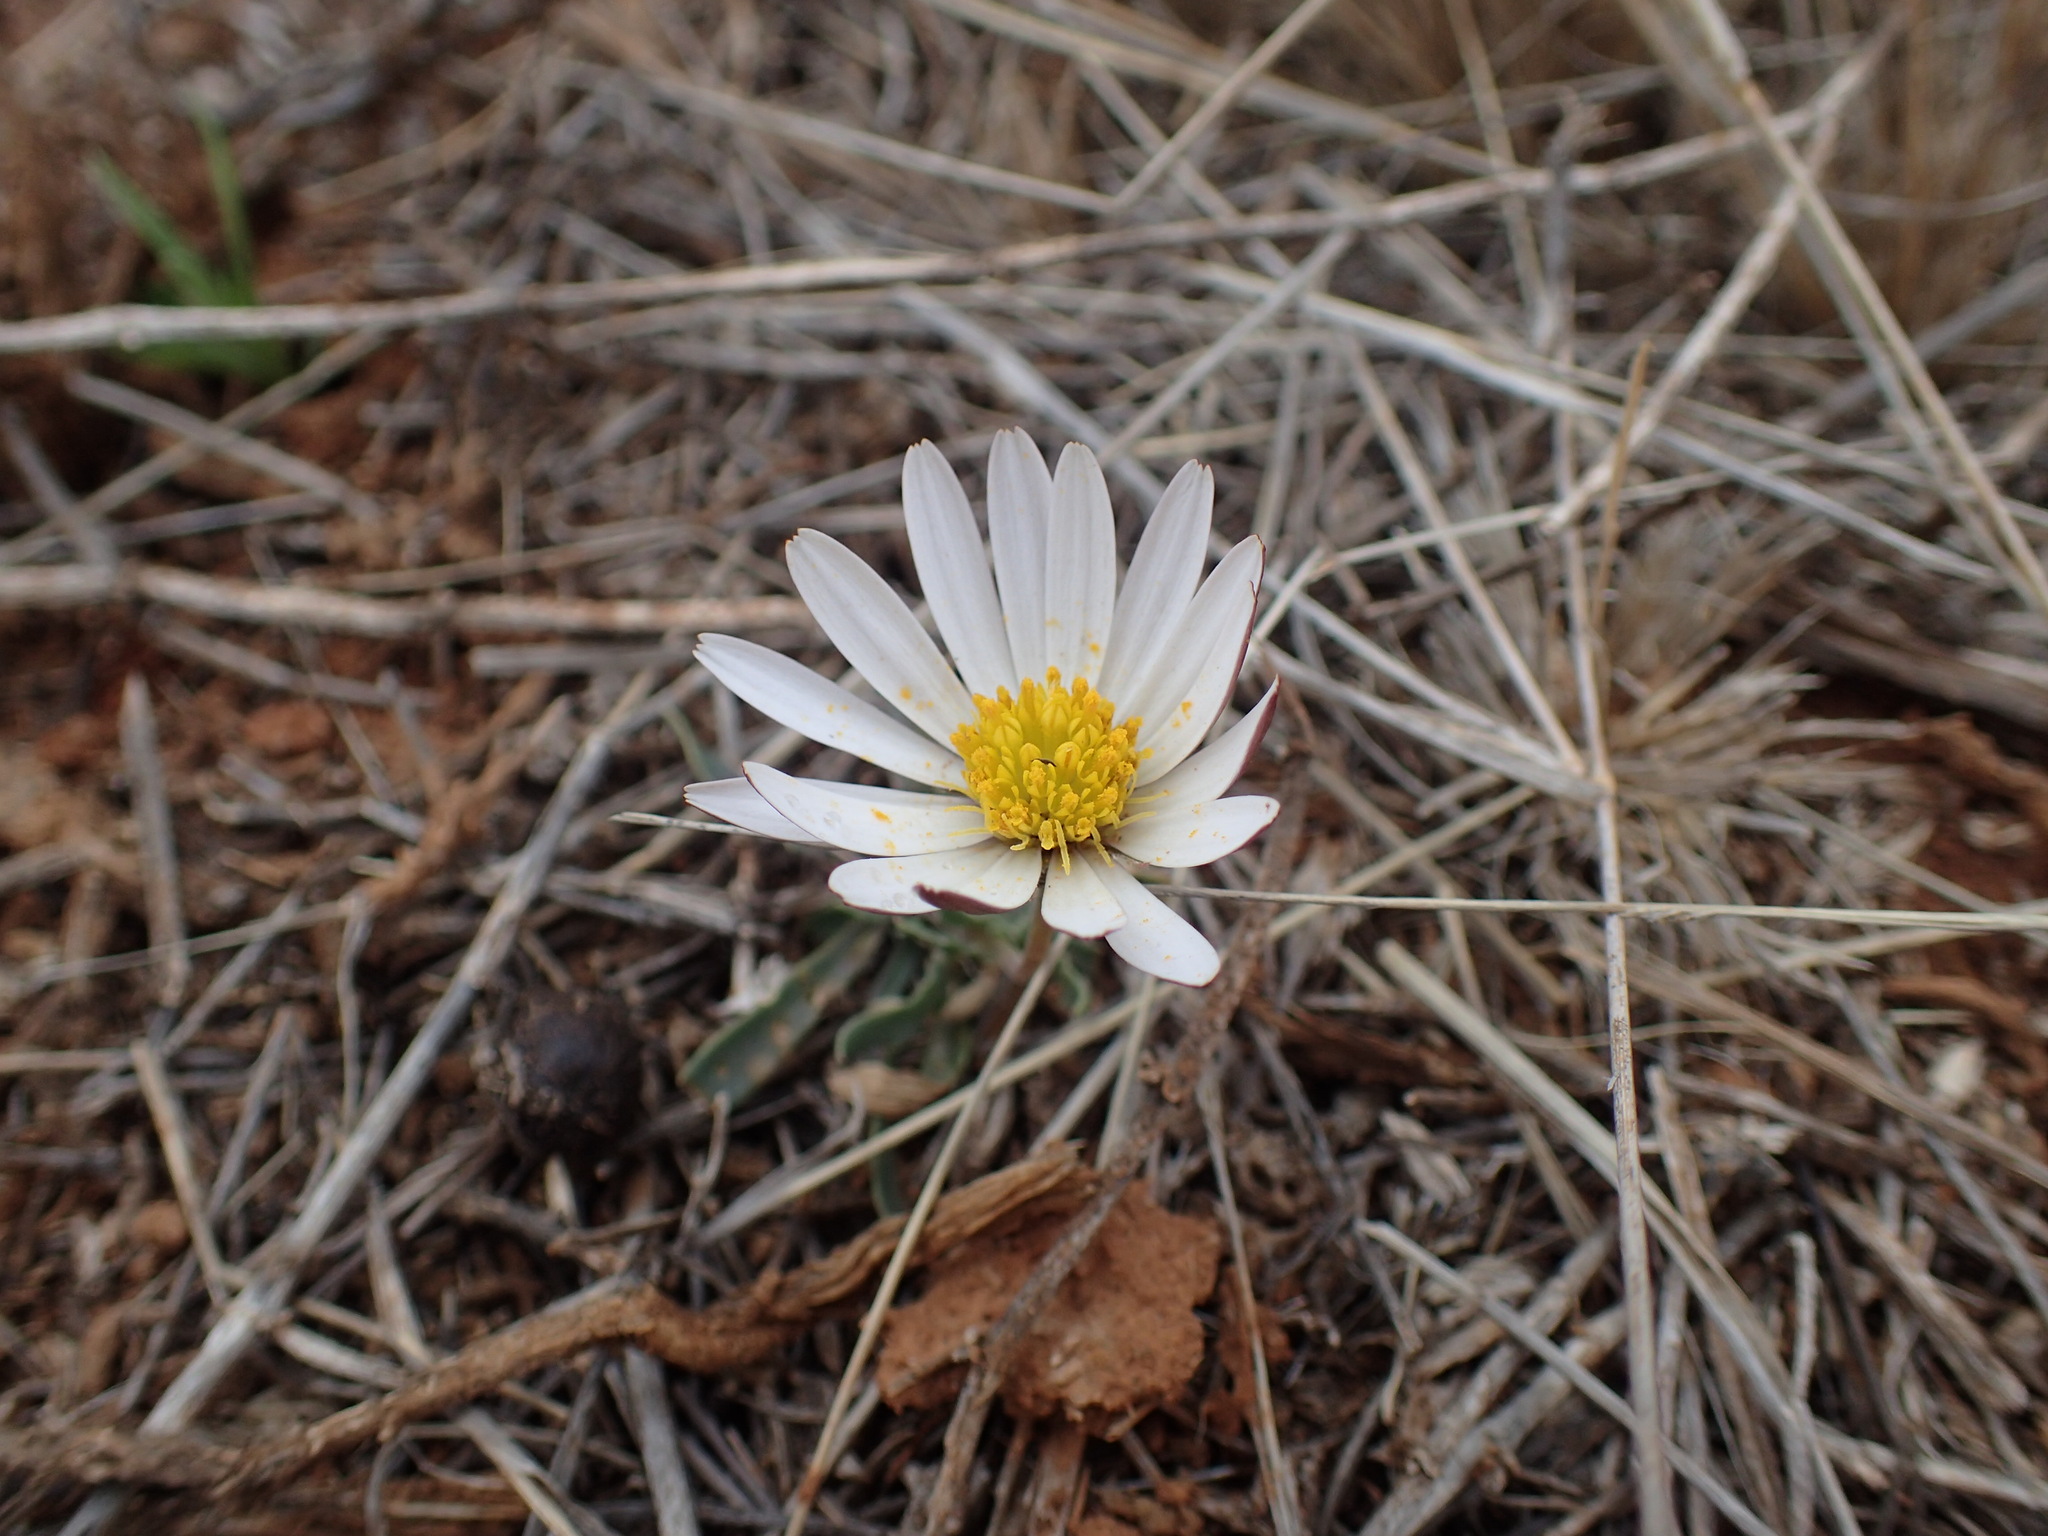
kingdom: Plantae
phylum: Tracheophyta
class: Magnoliopsida
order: Asterales
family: Asteraceae
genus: Dimorphotheca
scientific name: Dimorphotheca zeyheri
